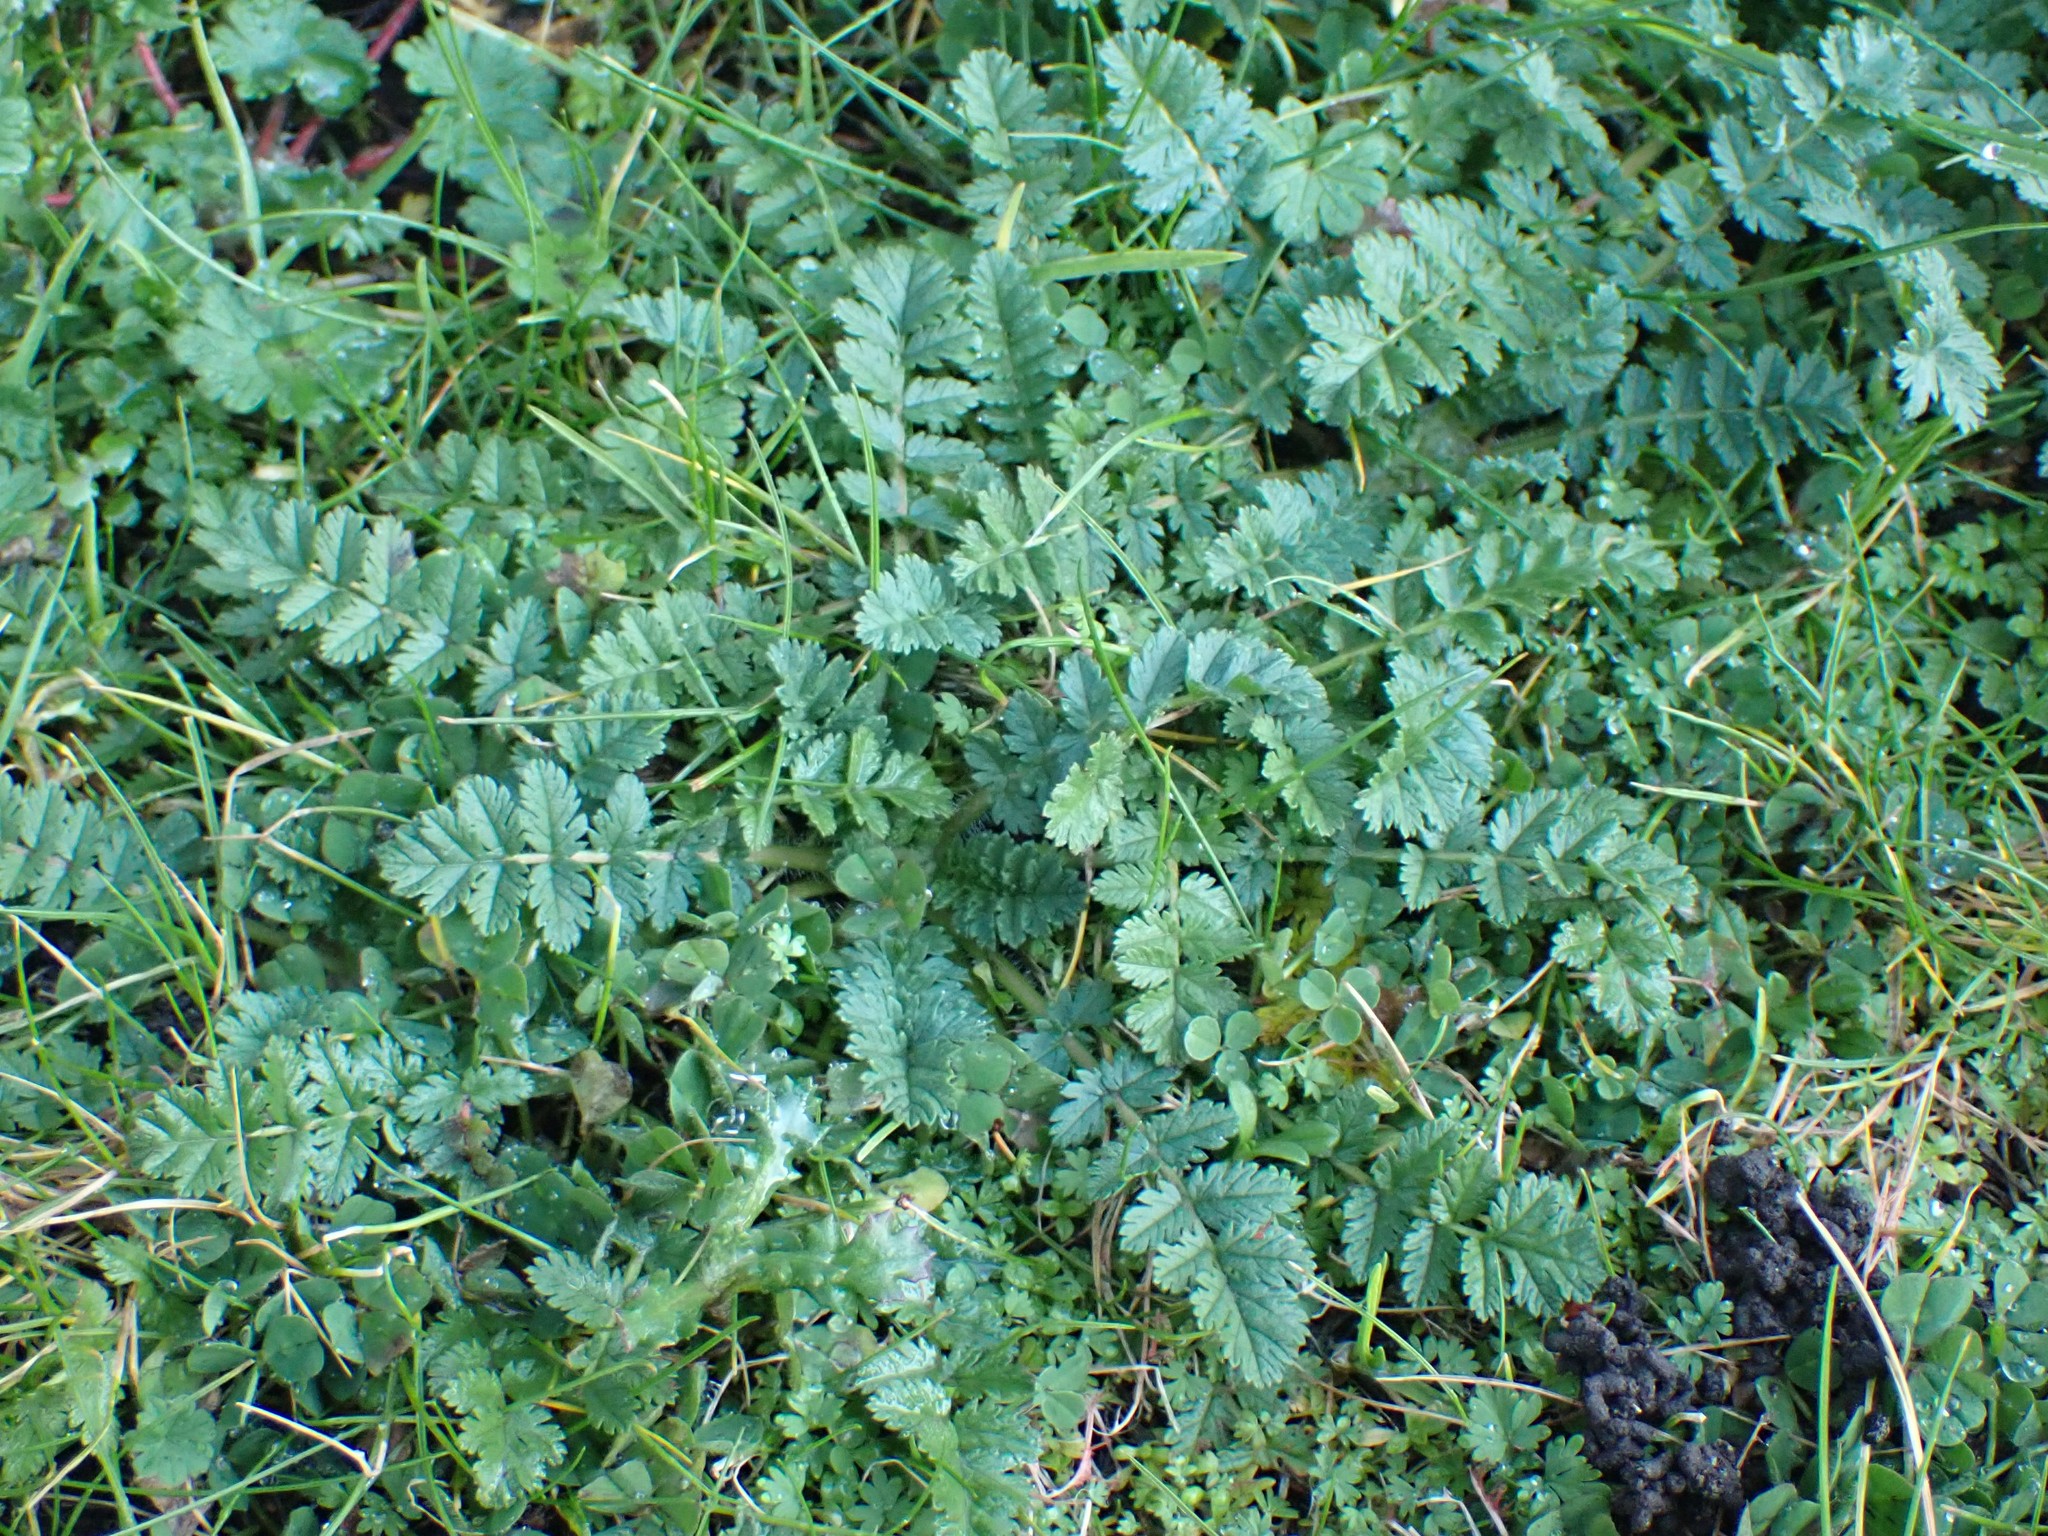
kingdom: Plantae
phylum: Tracheophyta
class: Magnoliopsida
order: Geraniales
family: Geraniaceae
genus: Erodium
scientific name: Erodium cicutarium
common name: Common stork's-bill
